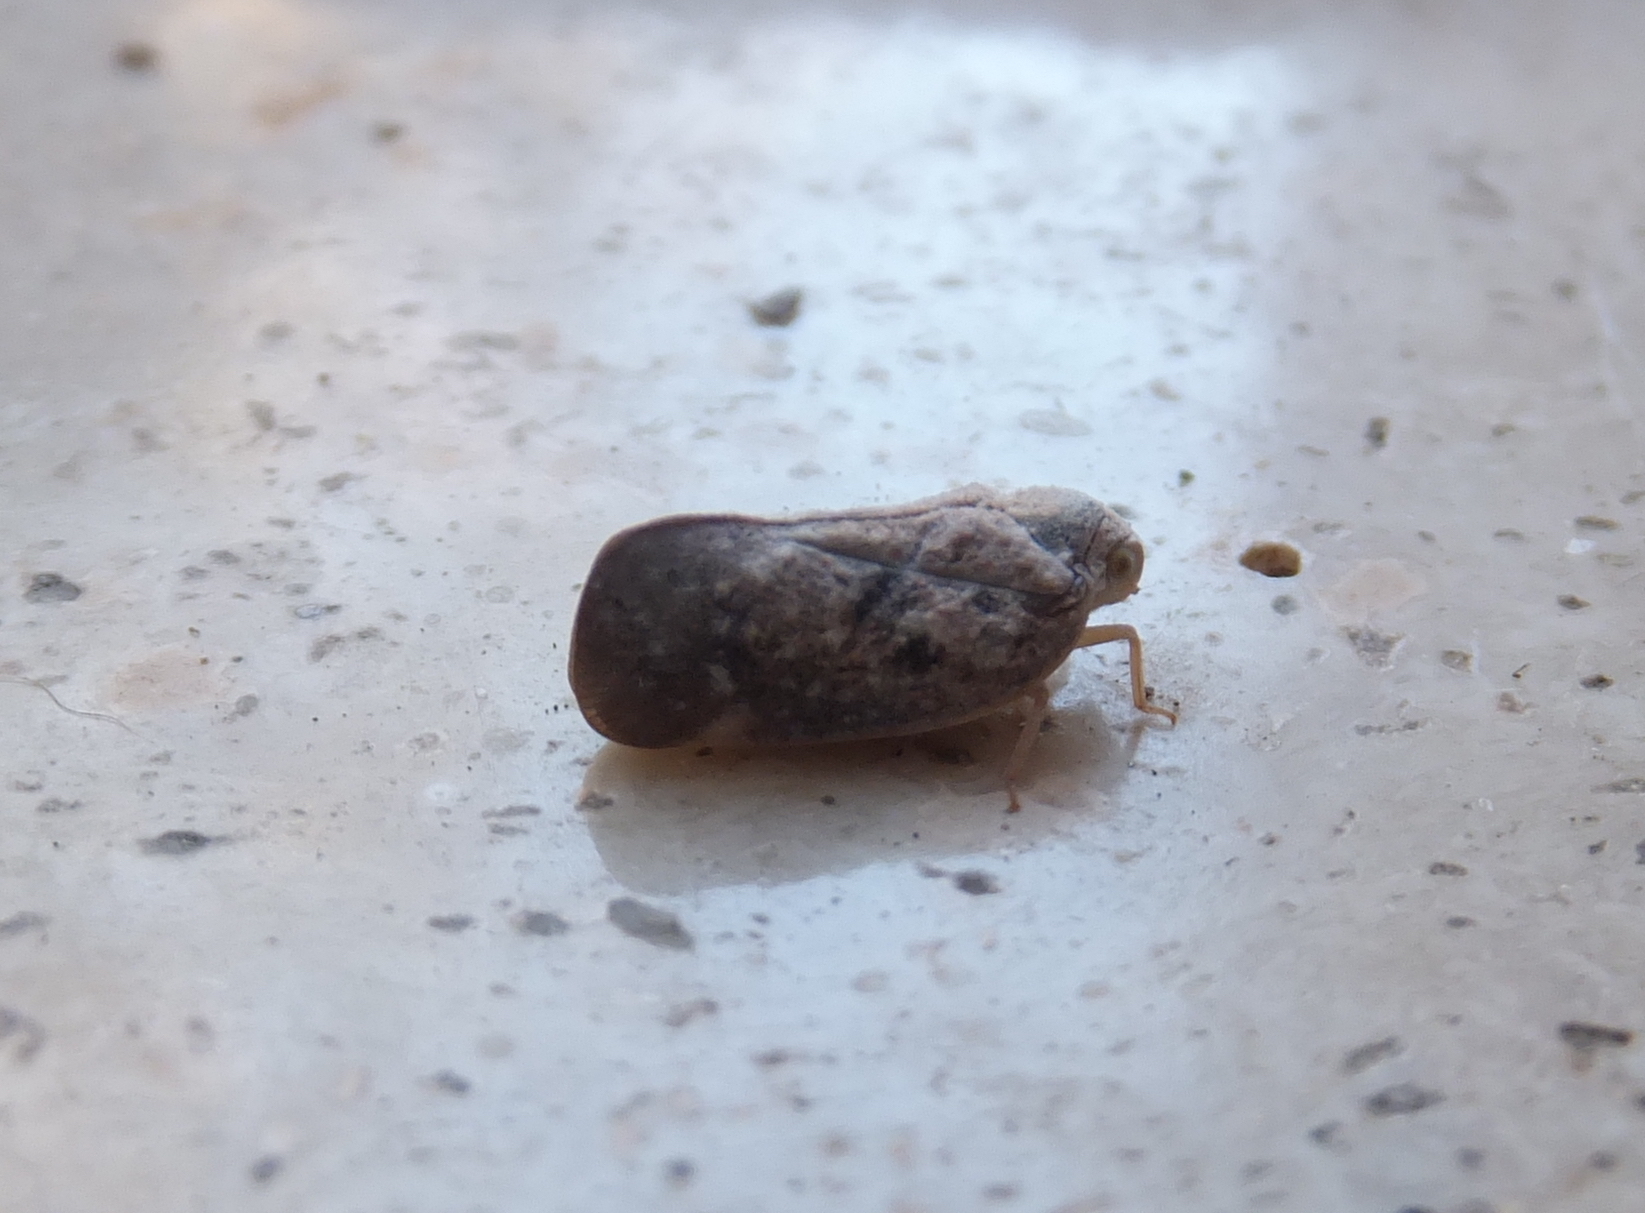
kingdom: Animalia
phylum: Arthropoda
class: Insecta
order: Hemiptera
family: Flatidae
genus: Metcalfa
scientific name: Metcalfa pruinosa
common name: Citrus flatid planthopper
